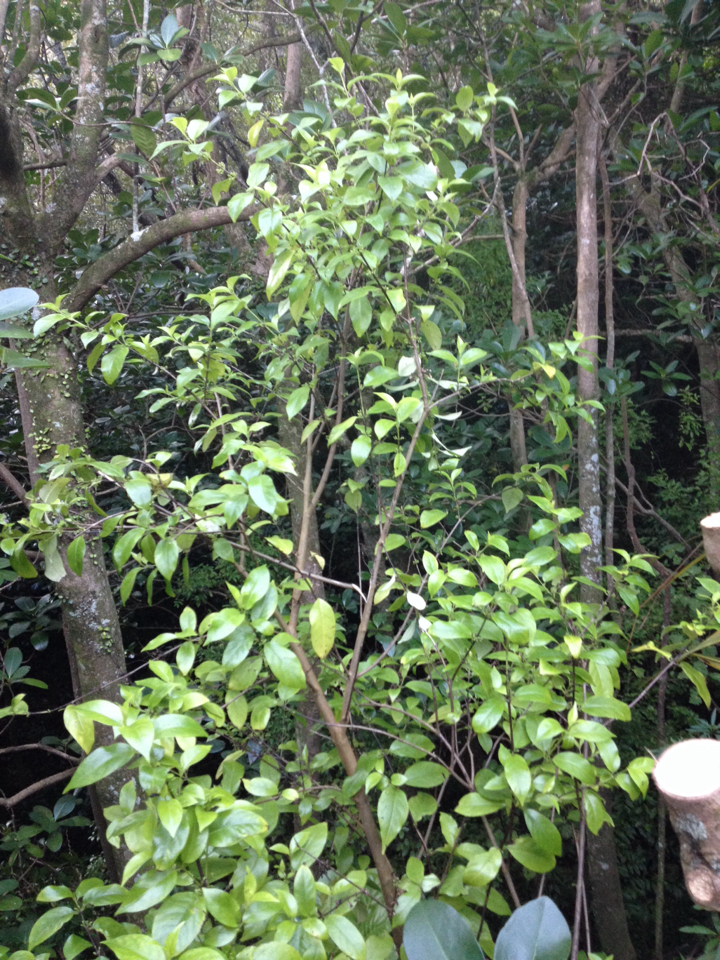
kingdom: Plantae
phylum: Tracheophyta
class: Magnoliopsida
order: Gentianales
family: Loganiaceae
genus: Geniostoma
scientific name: Geniostoma ligustrifolium
